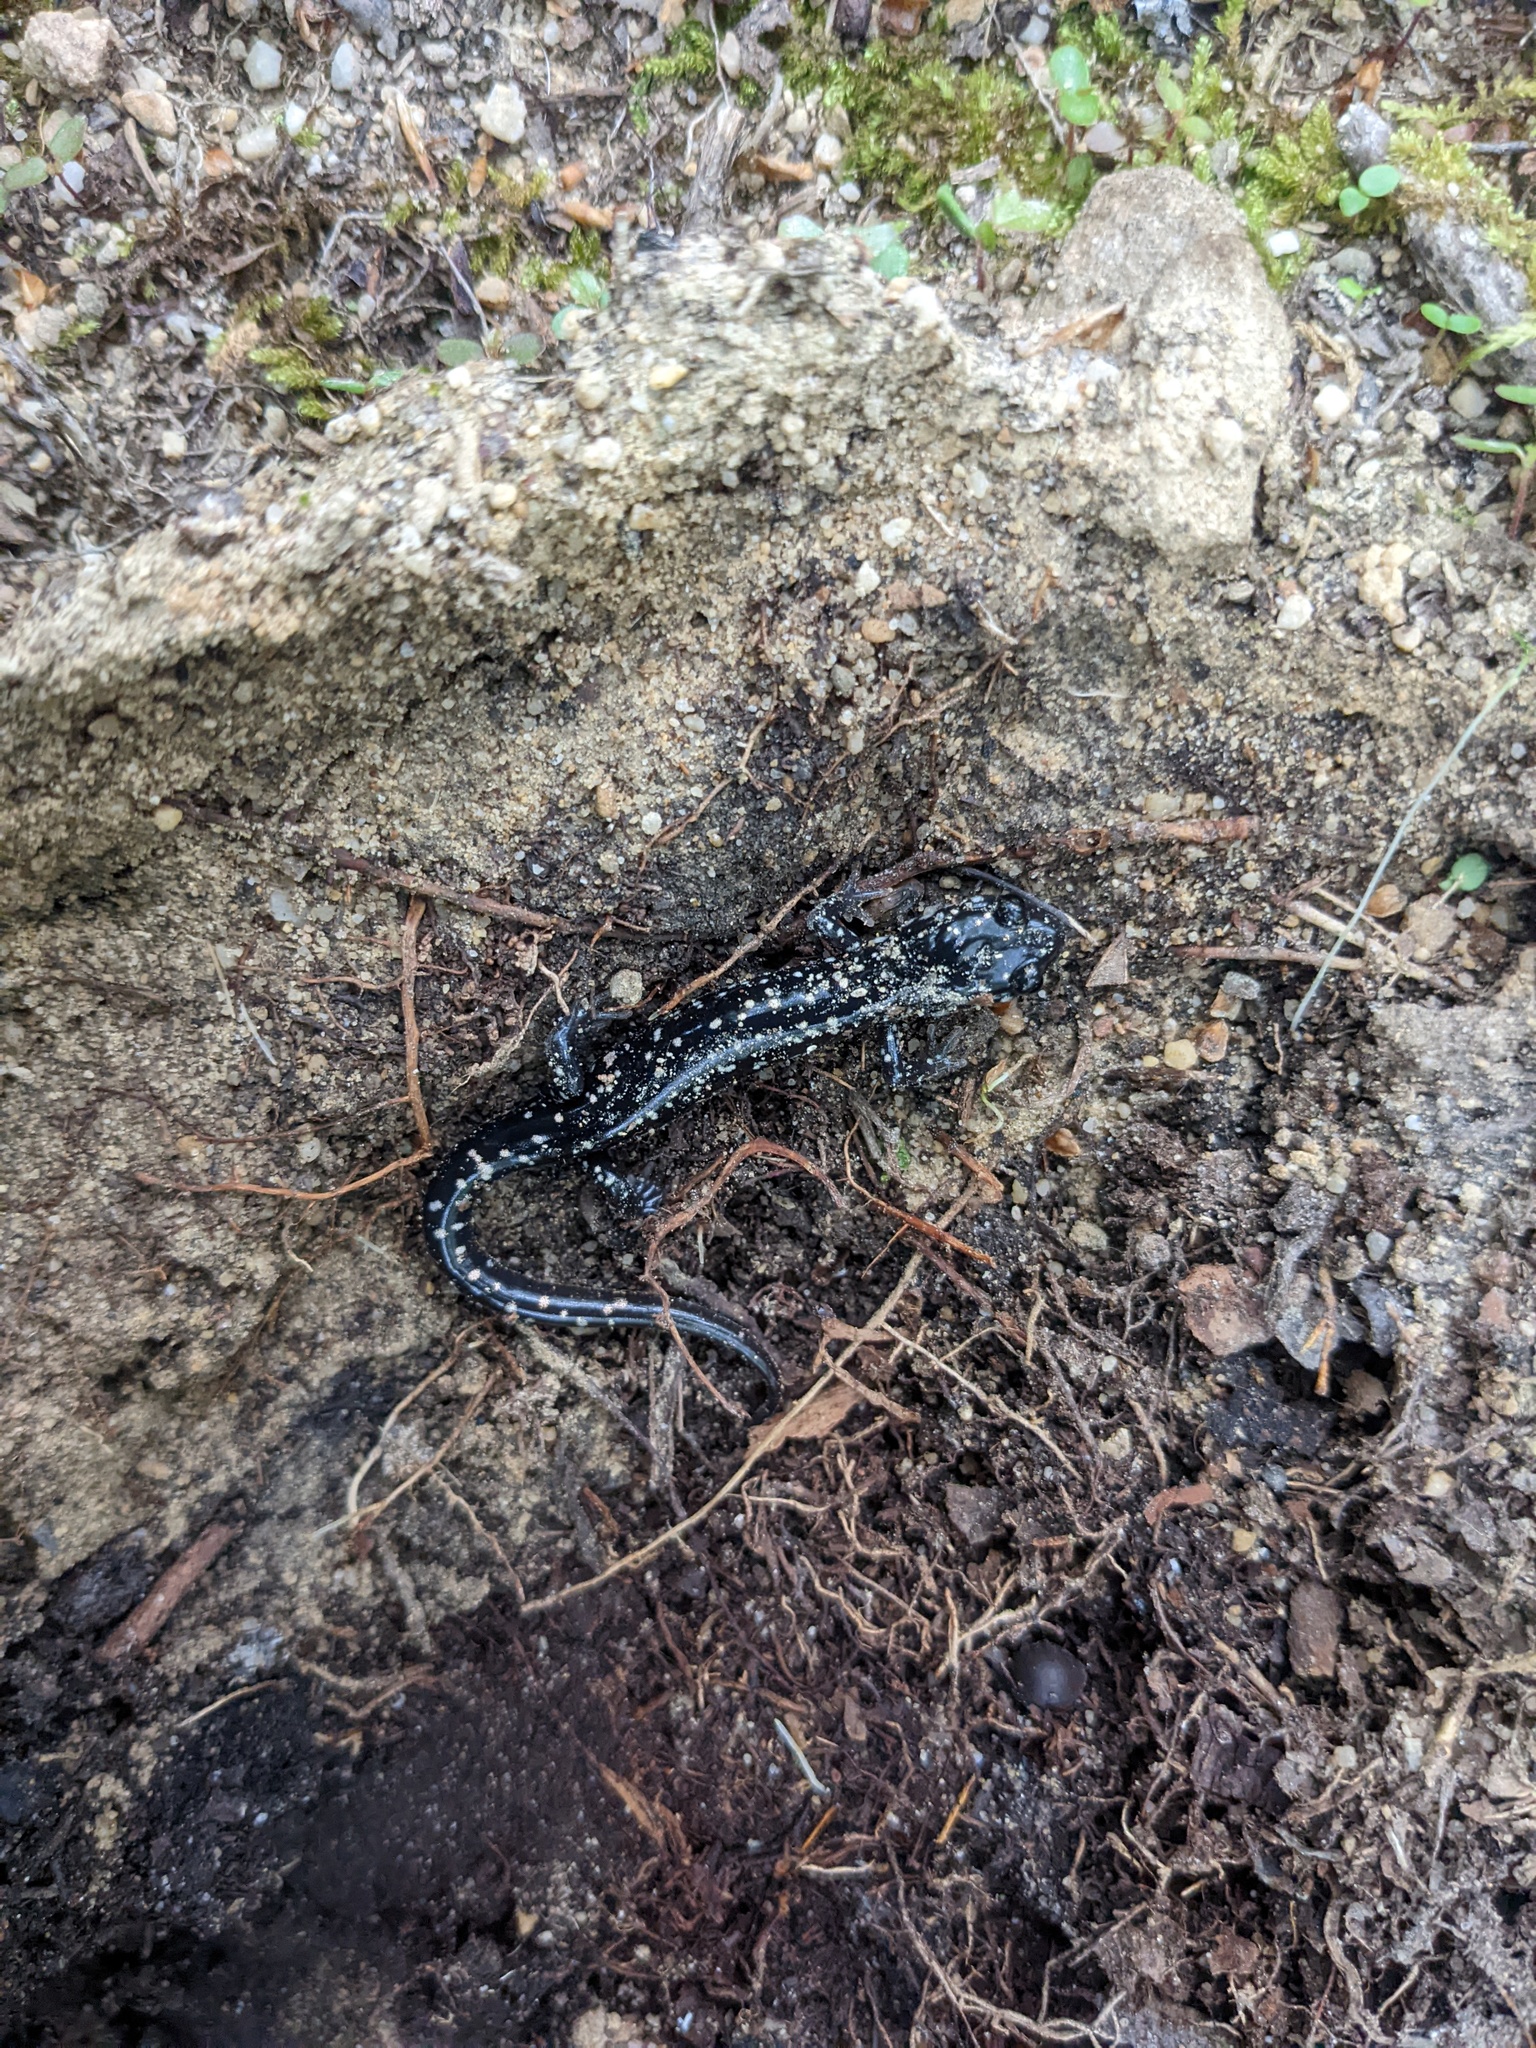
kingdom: Animalia
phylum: Chordata
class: Amphibia
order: Caudata
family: Plethodontidae
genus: Plethodon
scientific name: Plethodon glutinosus
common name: Northern slimy salamander
